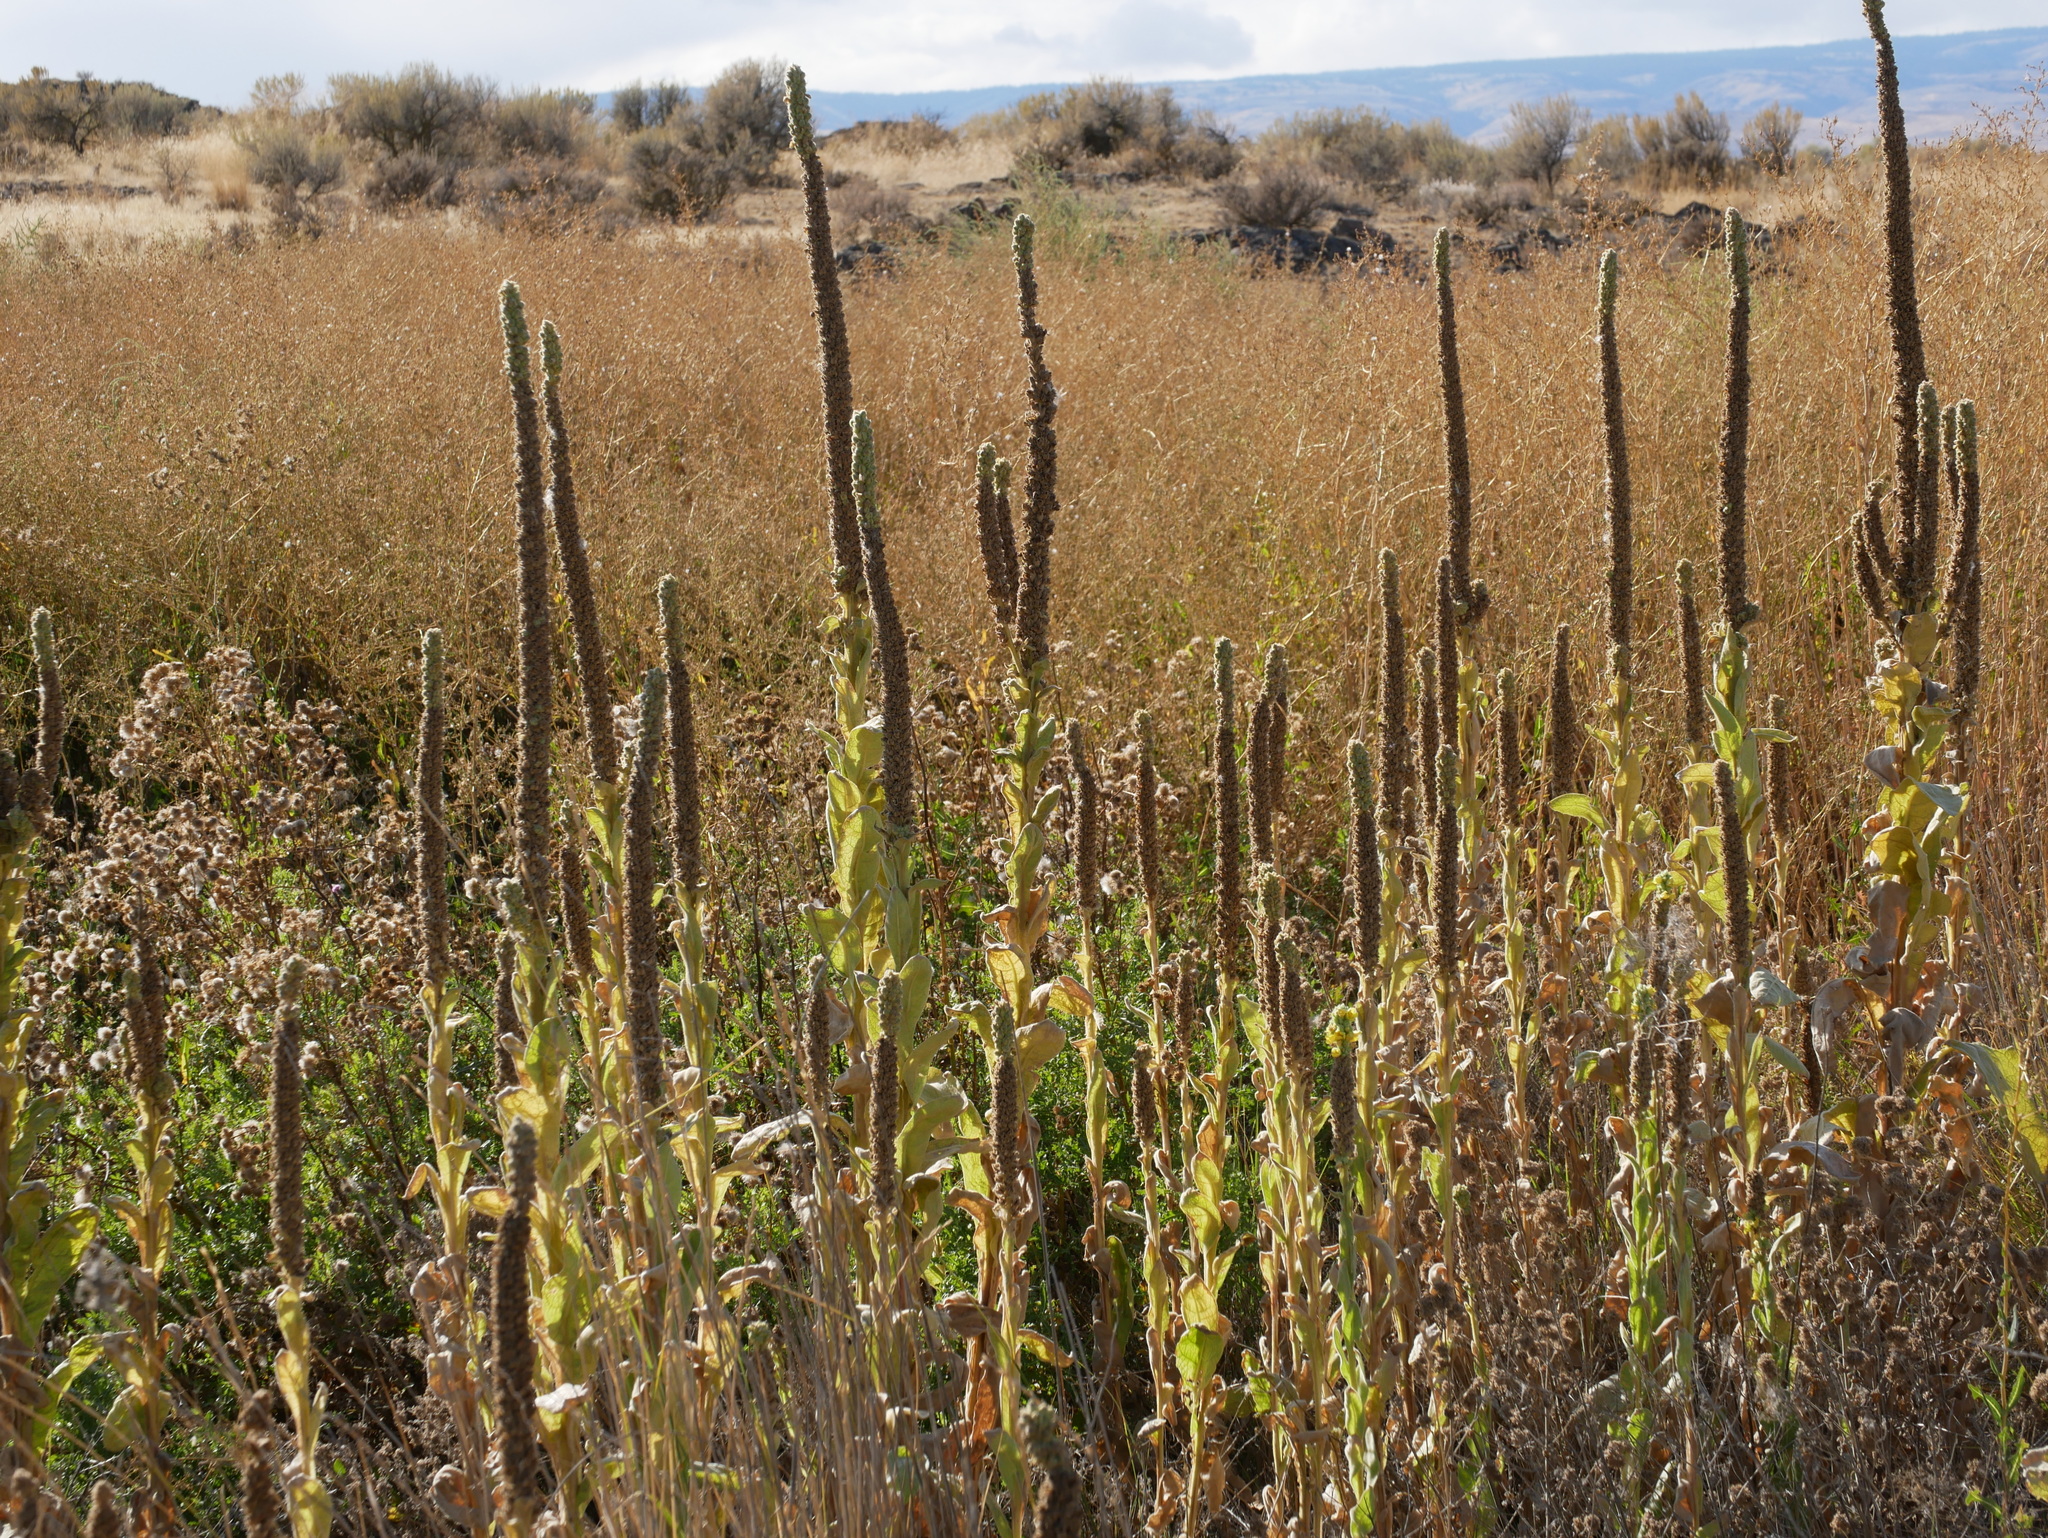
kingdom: Plantae
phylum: Tracheophyta
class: Magnoliopsida
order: Lamiales
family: Scrophulariaceae
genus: Verbascum
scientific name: Verbascum thapsus
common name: Common mullein
